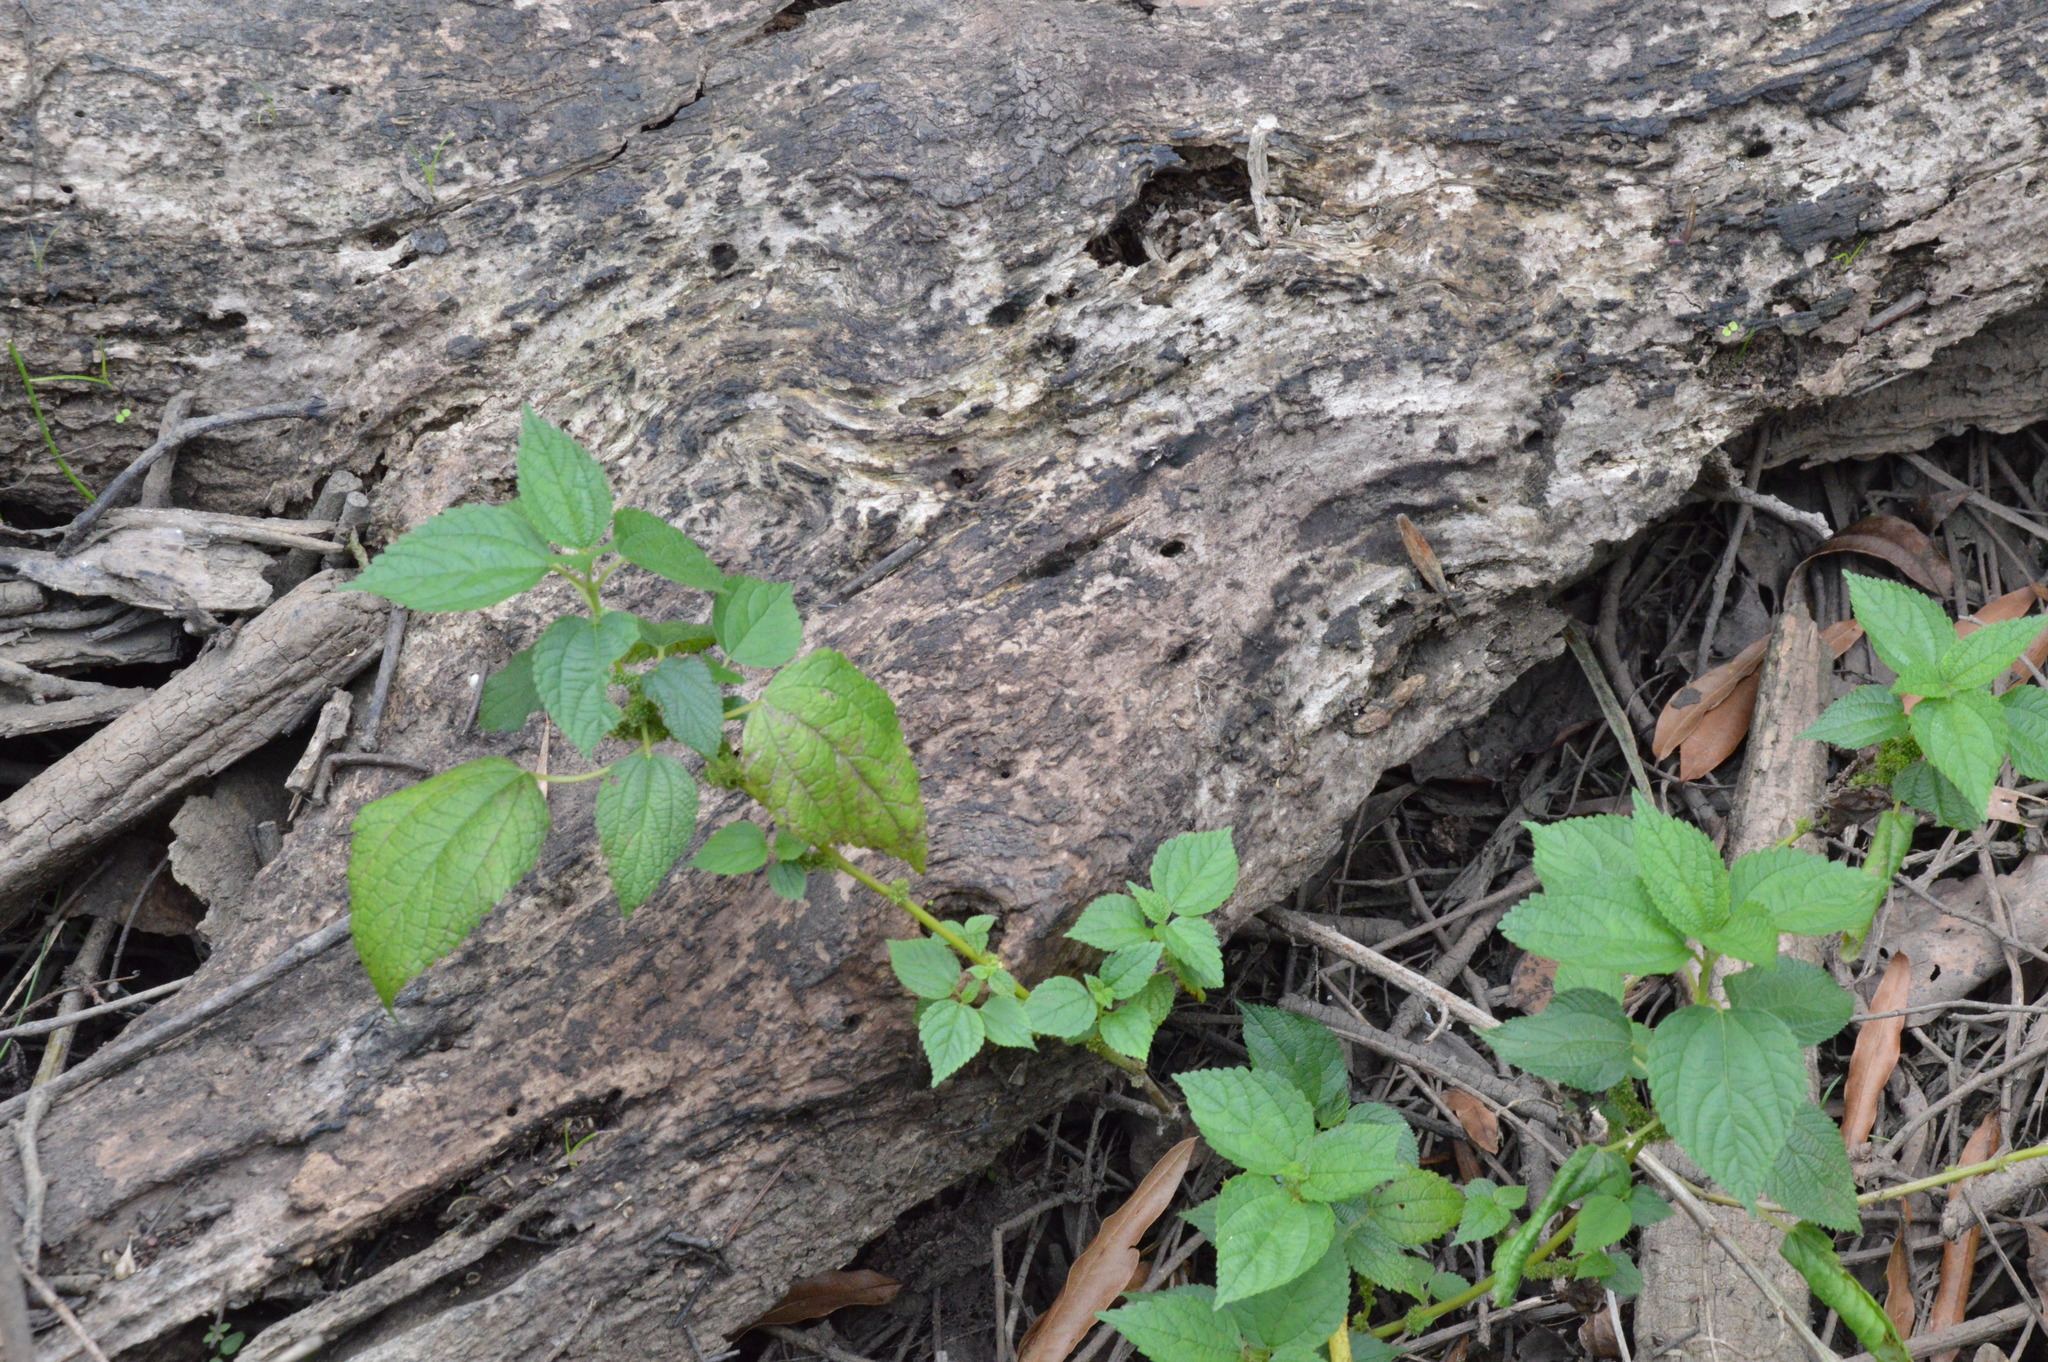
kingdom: Plantae
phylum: Tracheophyta
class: Magnoliopsida
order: Rosales
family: Urticaceae
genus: Boehmeria
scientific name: Boehmeria cylindrica
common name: Bog-hemp
